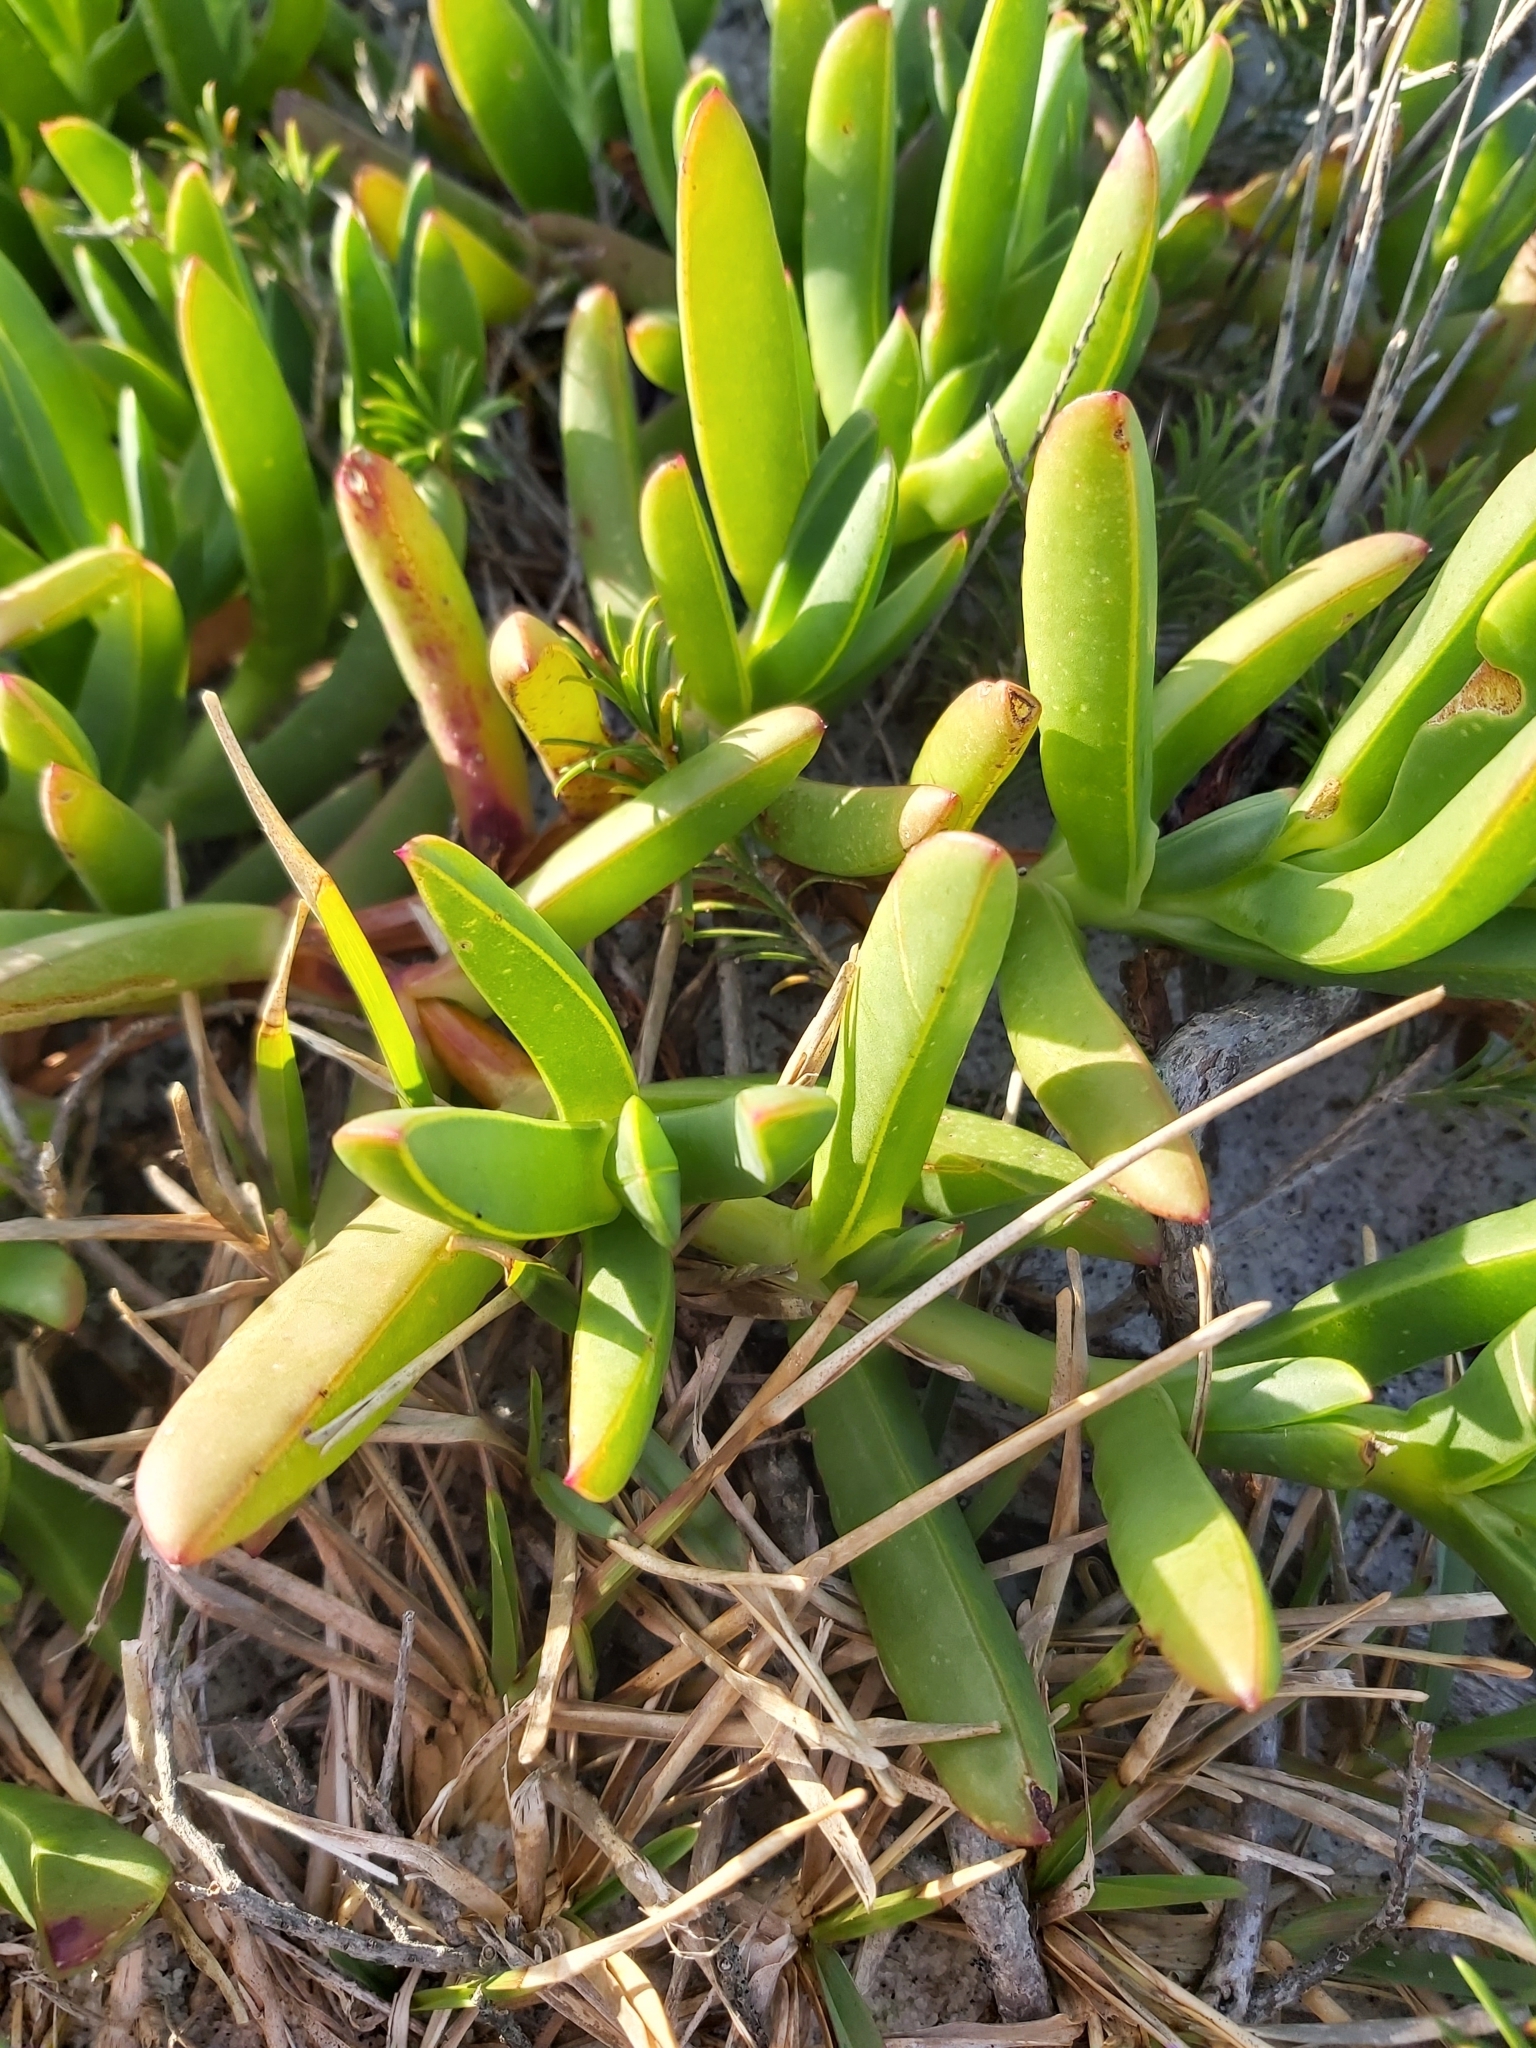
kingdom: Plantae
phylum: Tracheophyta
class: Magnoliopsida
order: Caryophyllales
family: Aizoaceae
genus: Carpobrotus
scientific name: Carpobrotus glaucescens
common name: Angular sea-fig
